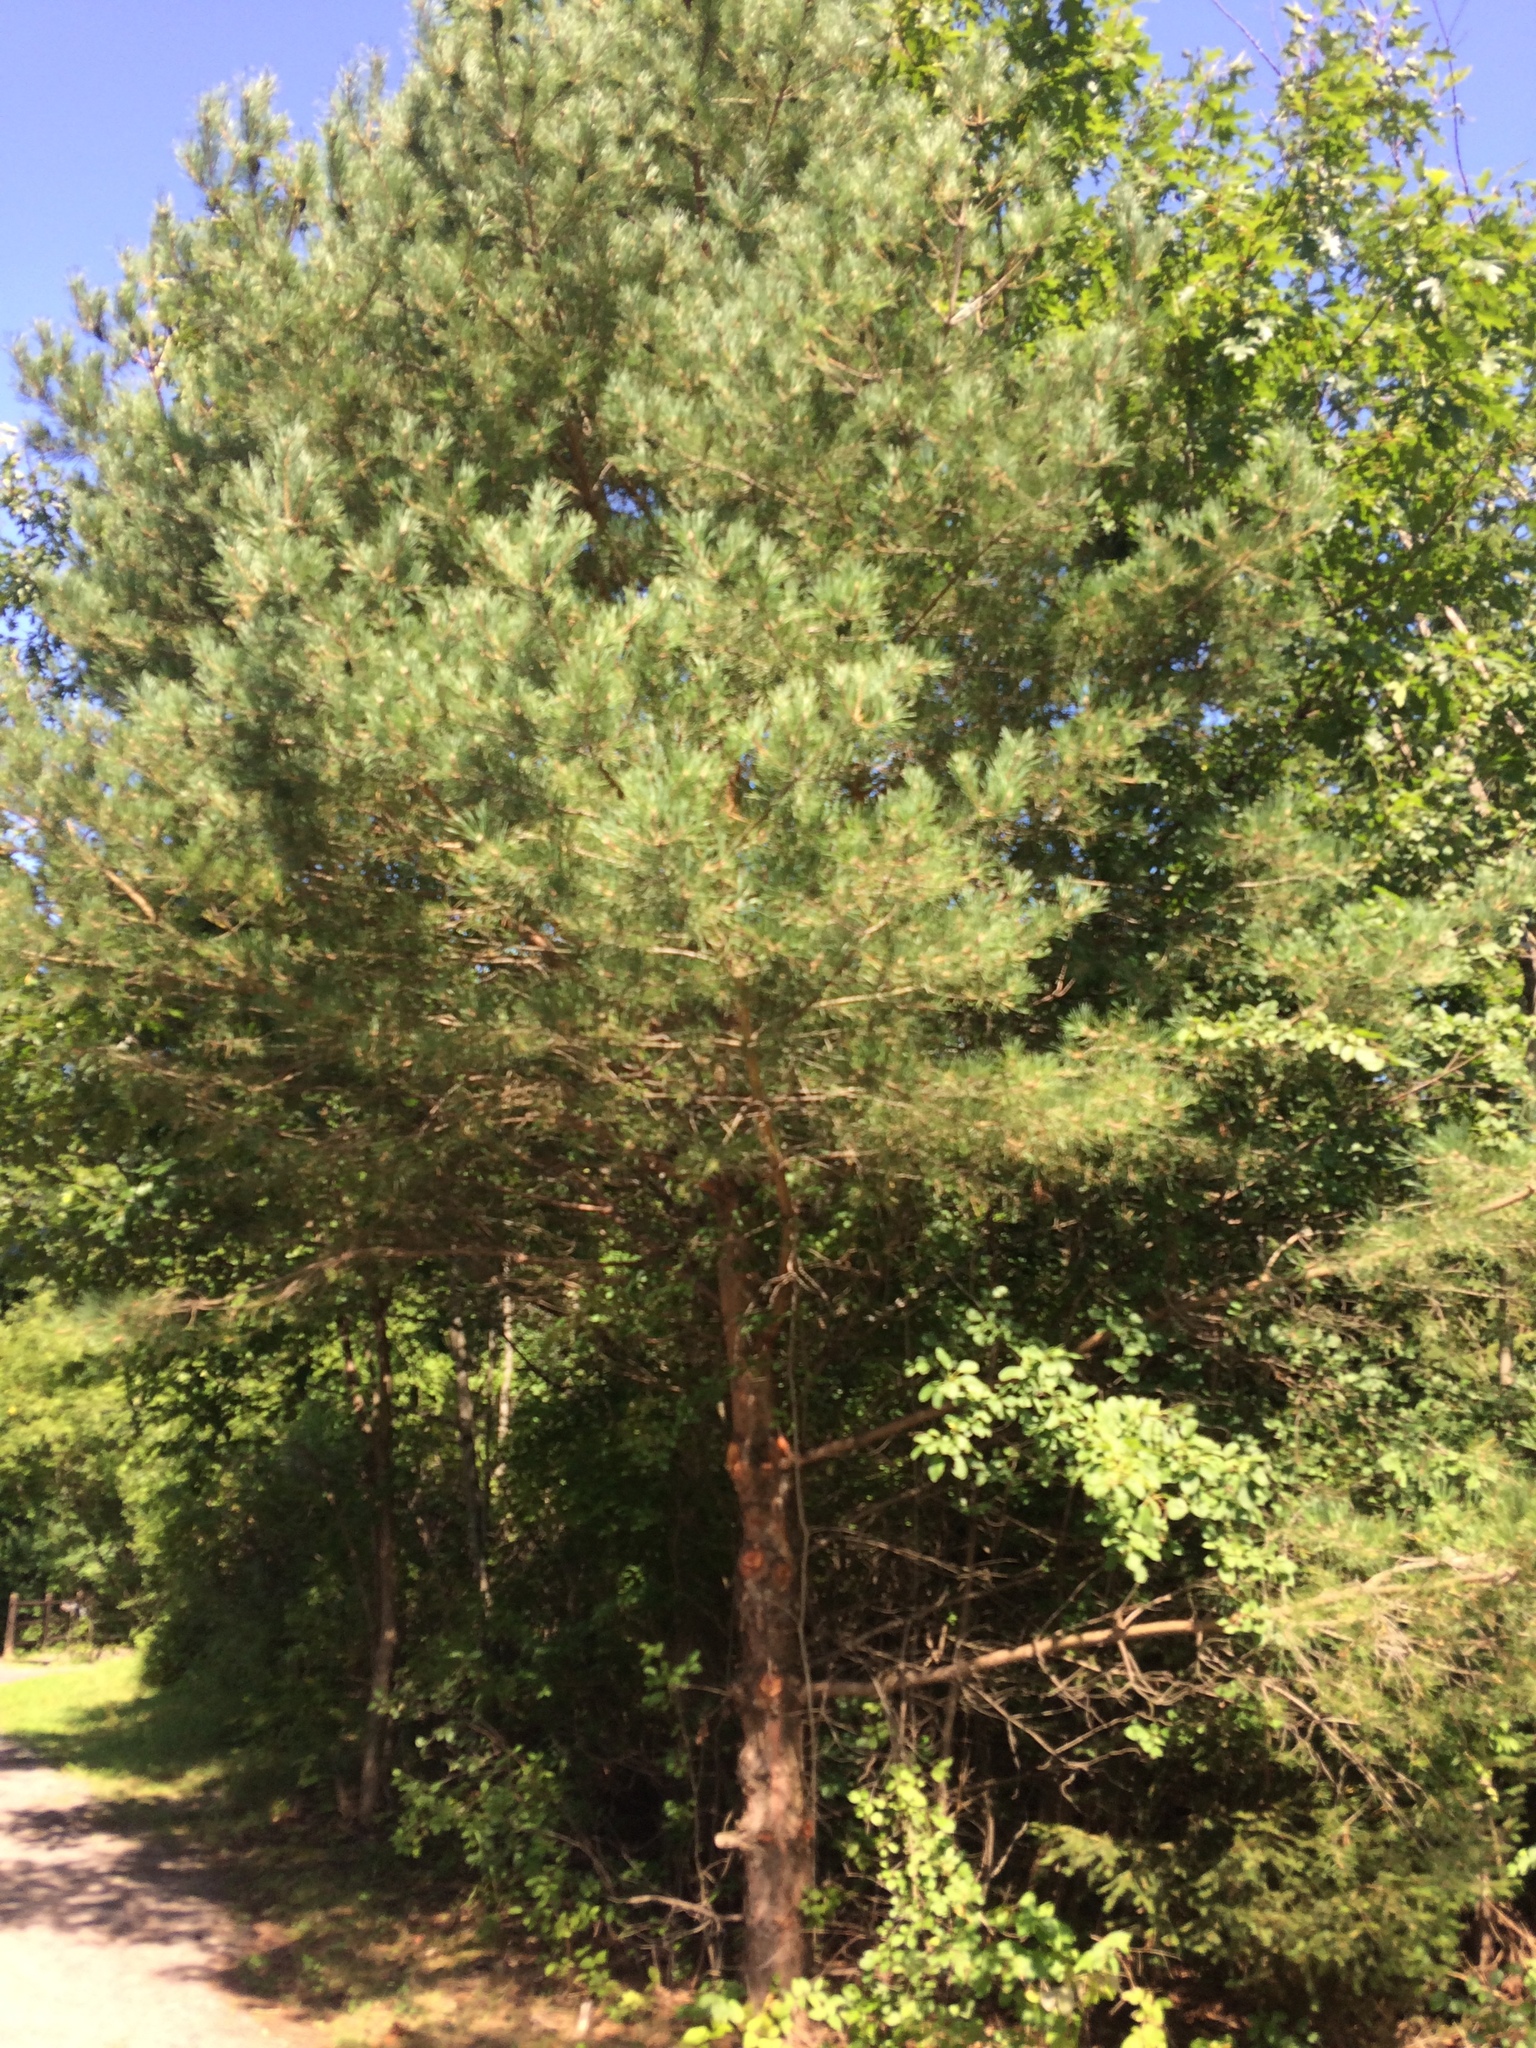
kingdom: Plantae
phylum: Tracheophyta
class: Pinopsida
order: Pinales
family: Pinaceae
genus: Pinus
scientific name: Pinus sylvestris
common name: Scots pine
